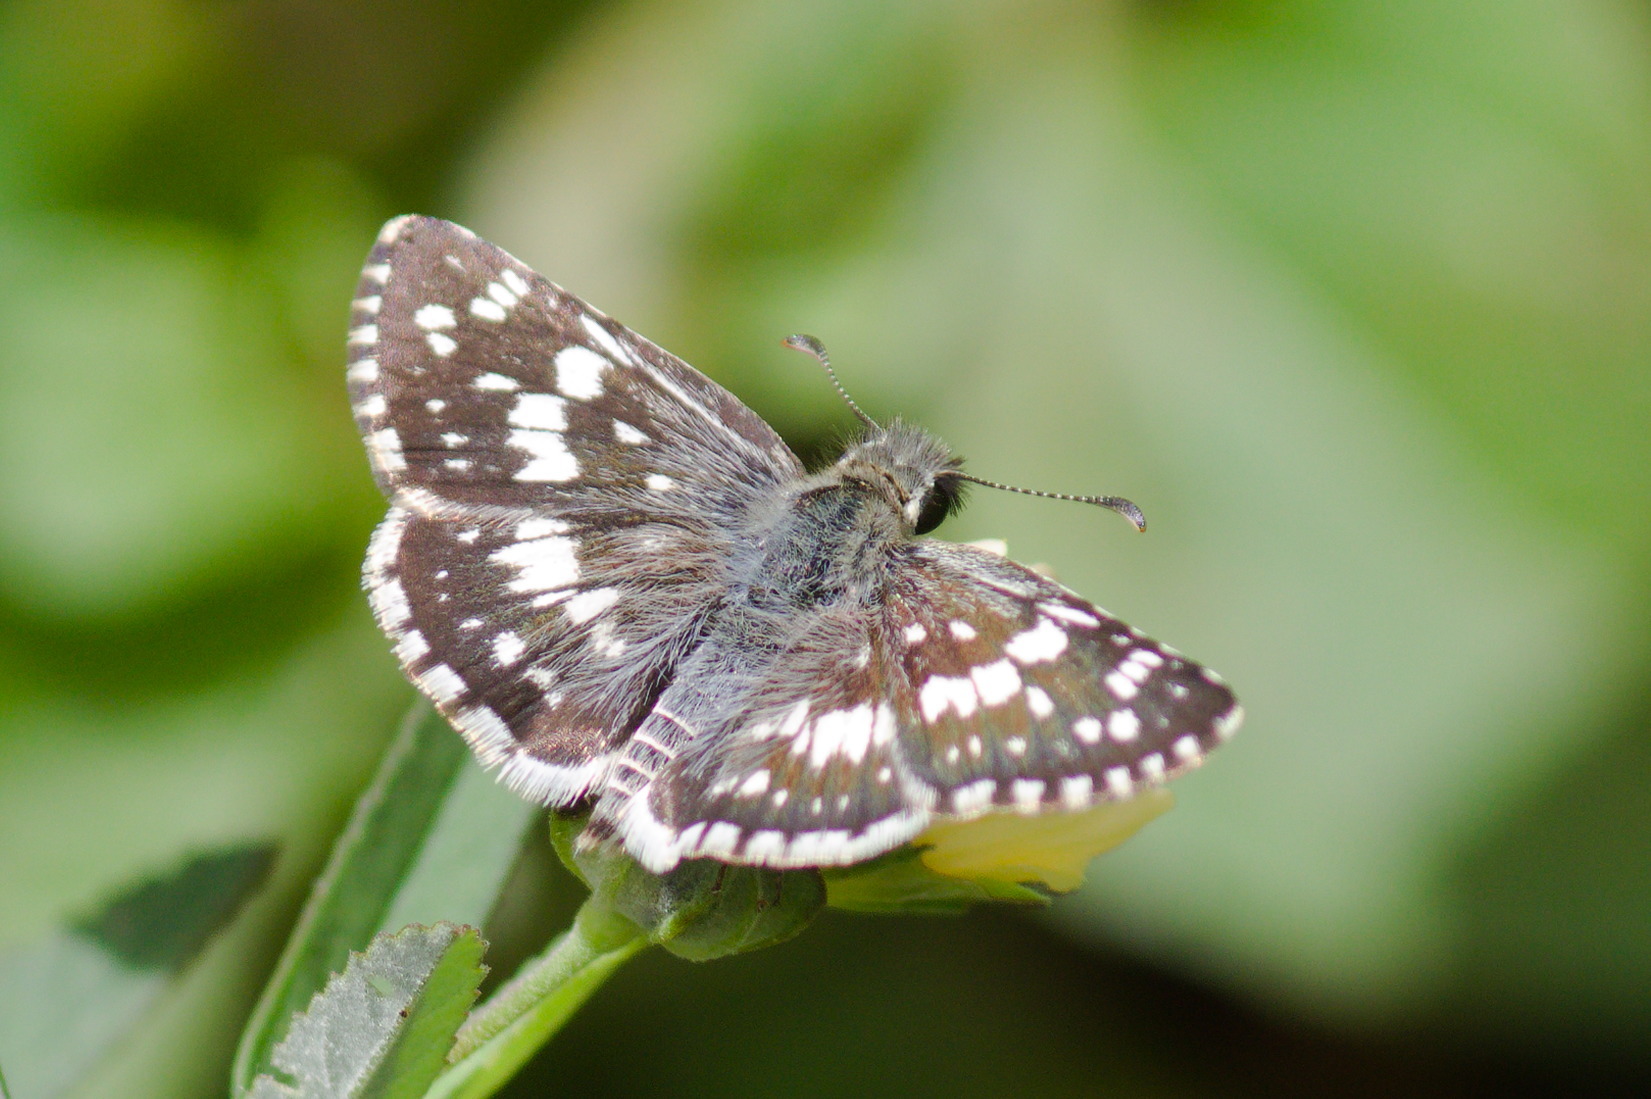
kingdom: Animalia
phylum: Arthropoda
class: Insecta
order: Lepidoptera
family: Hesperiidae
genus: Burnsius
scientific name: Burnsius orcynoides
